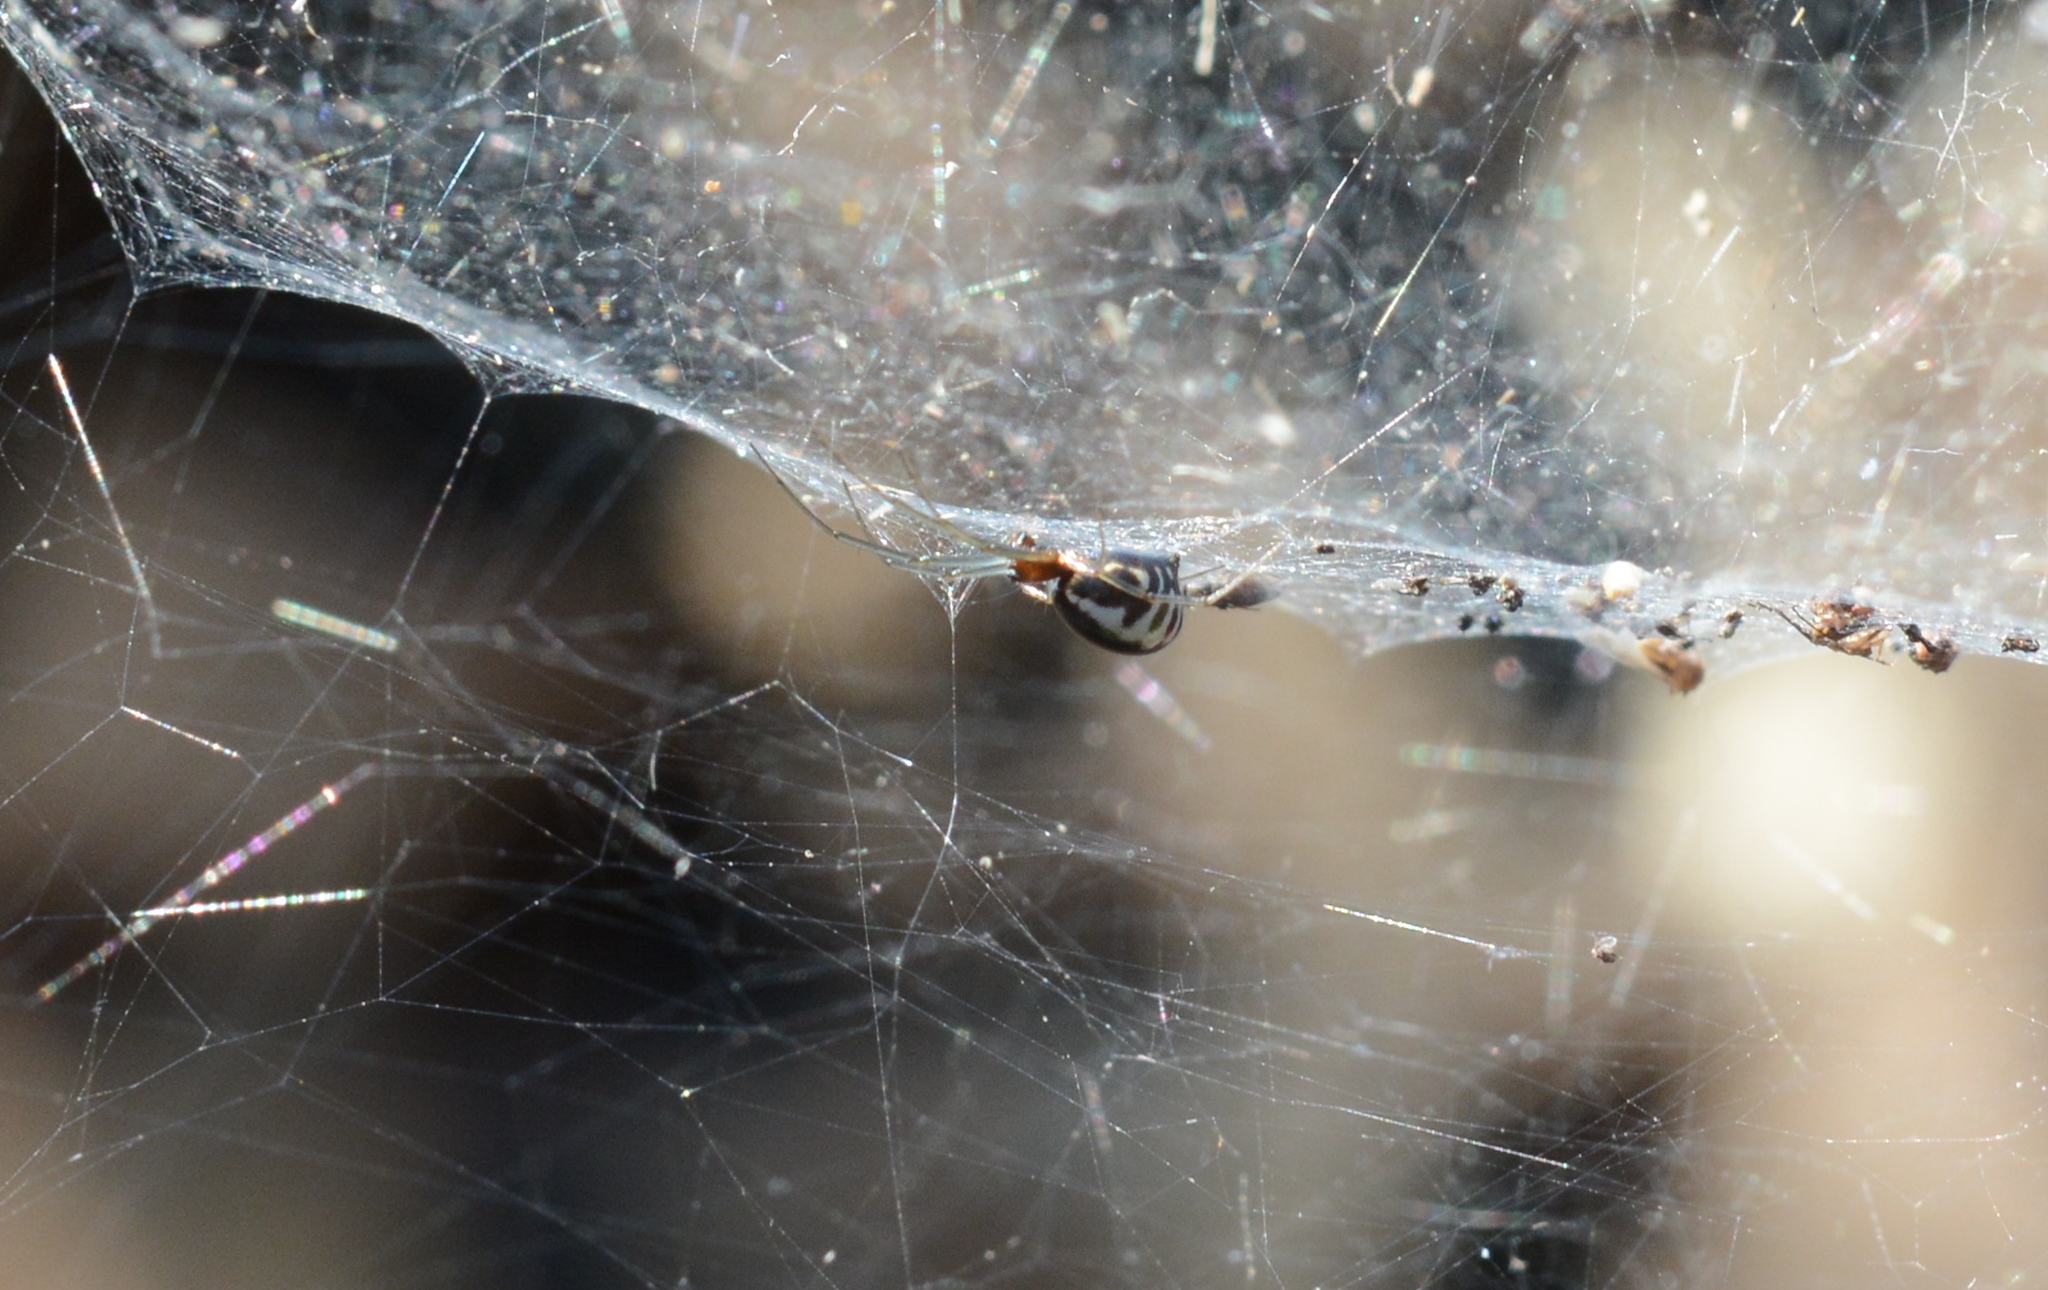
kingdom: Animalia
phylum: Arthropoda
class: Arachnida
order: Araneae
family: Linyphiidae
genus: Frontinella
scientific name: Frontinella pyramitela
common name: Bowl-and-doily spider
